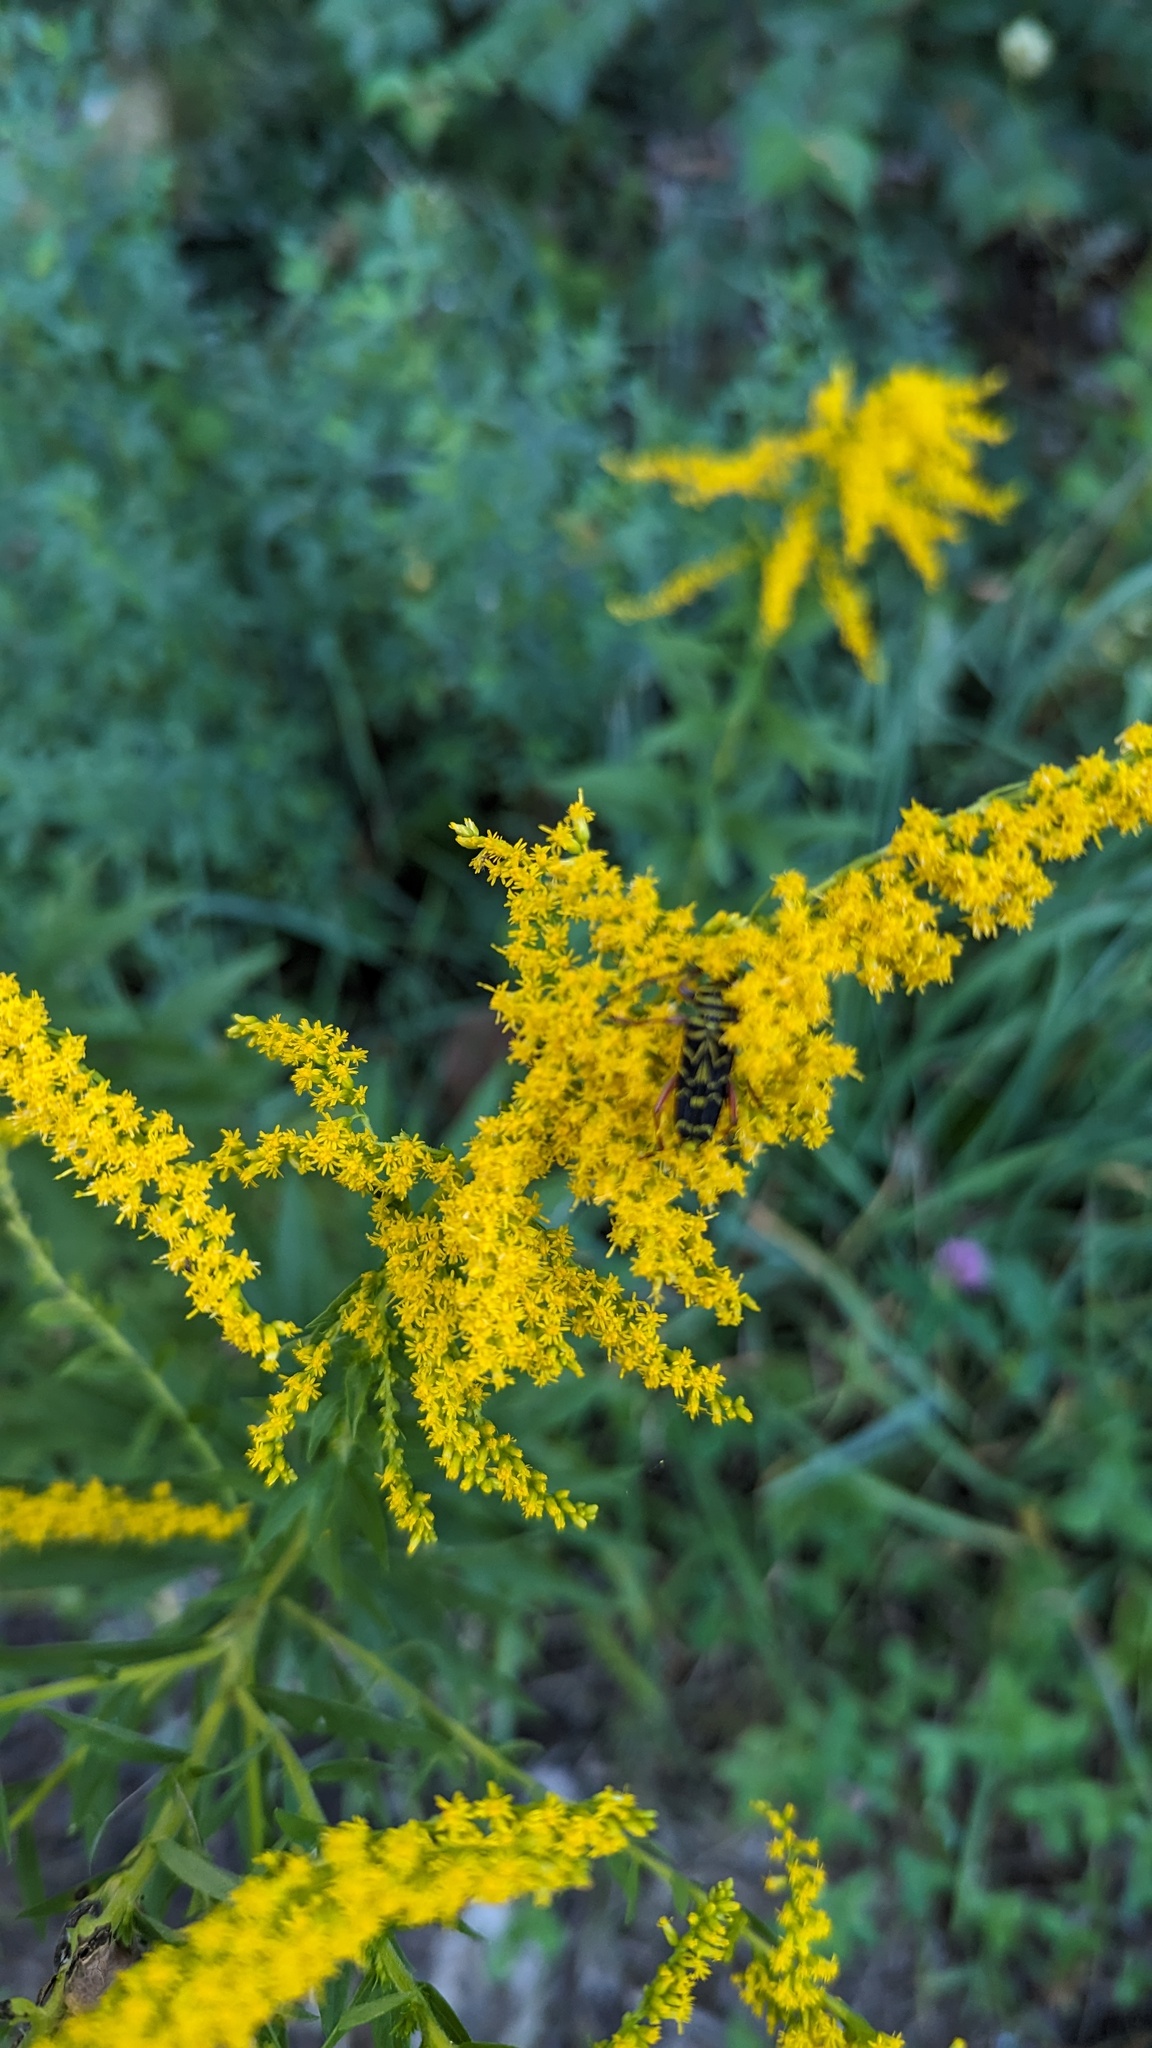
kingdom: Animalia
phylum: Arthropoda
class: Insecta
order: Coleoptera
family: Cerambycidae
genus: Megacyllene
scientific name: Megacyllene robiniae
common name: Locust borer
